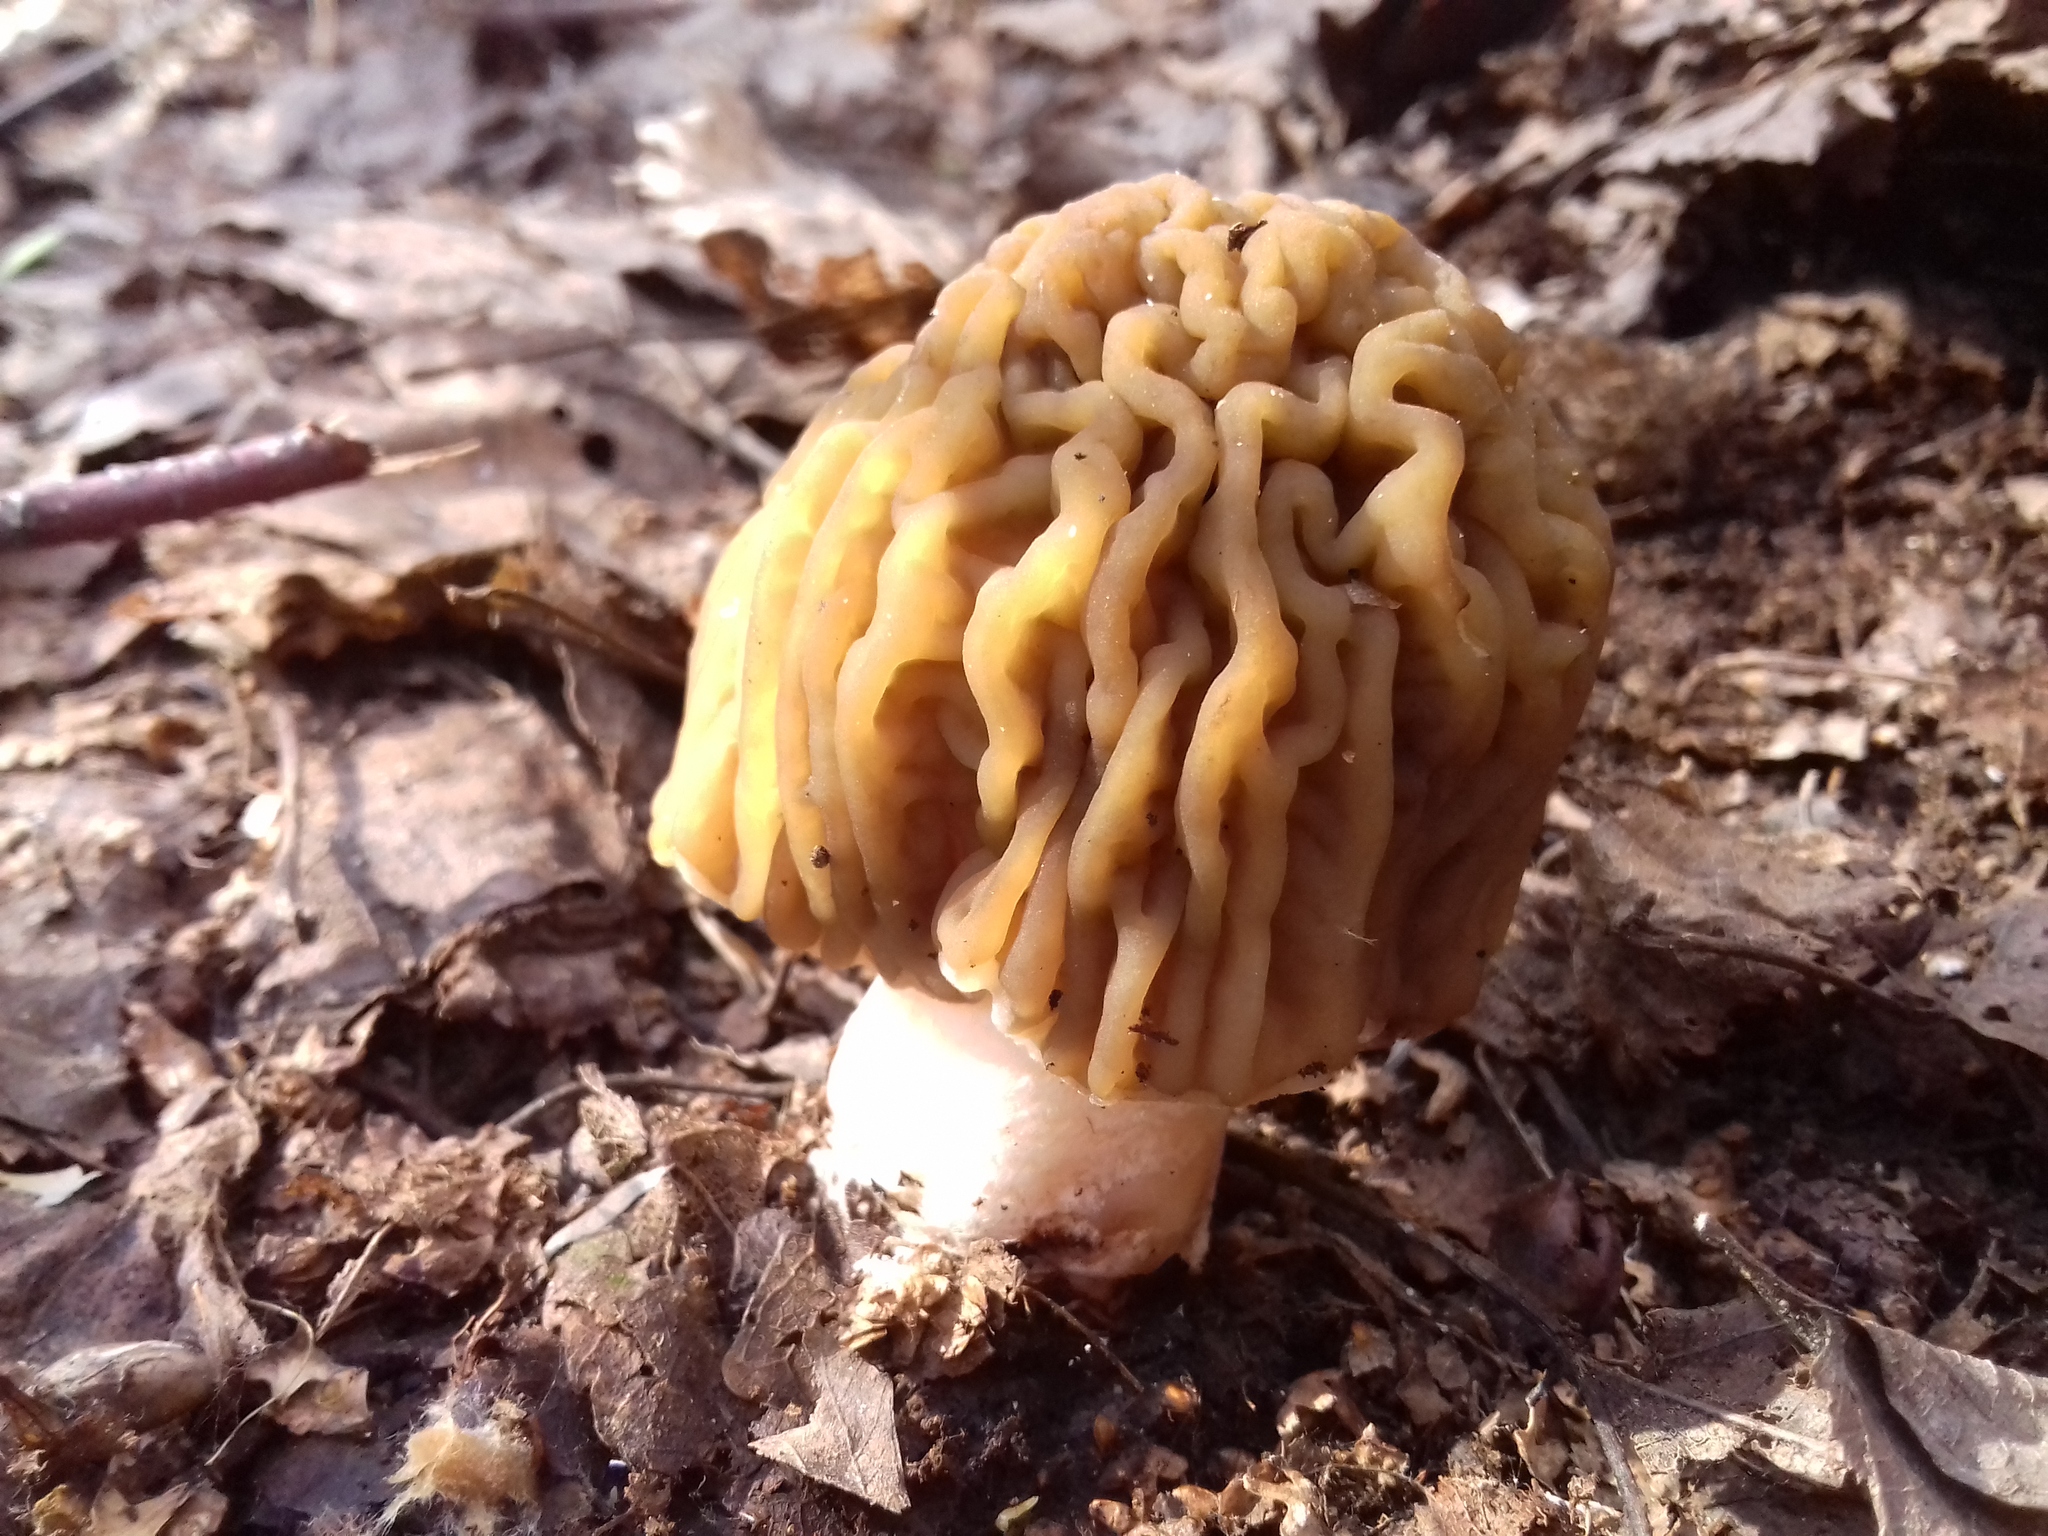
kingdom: Fungi
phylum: Ascomycota
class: Pezizomycetes
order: Pezizales
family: Morchellaceae
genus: Verpa
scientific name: Verpa bohemica
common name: Wrinkled thimble morel
